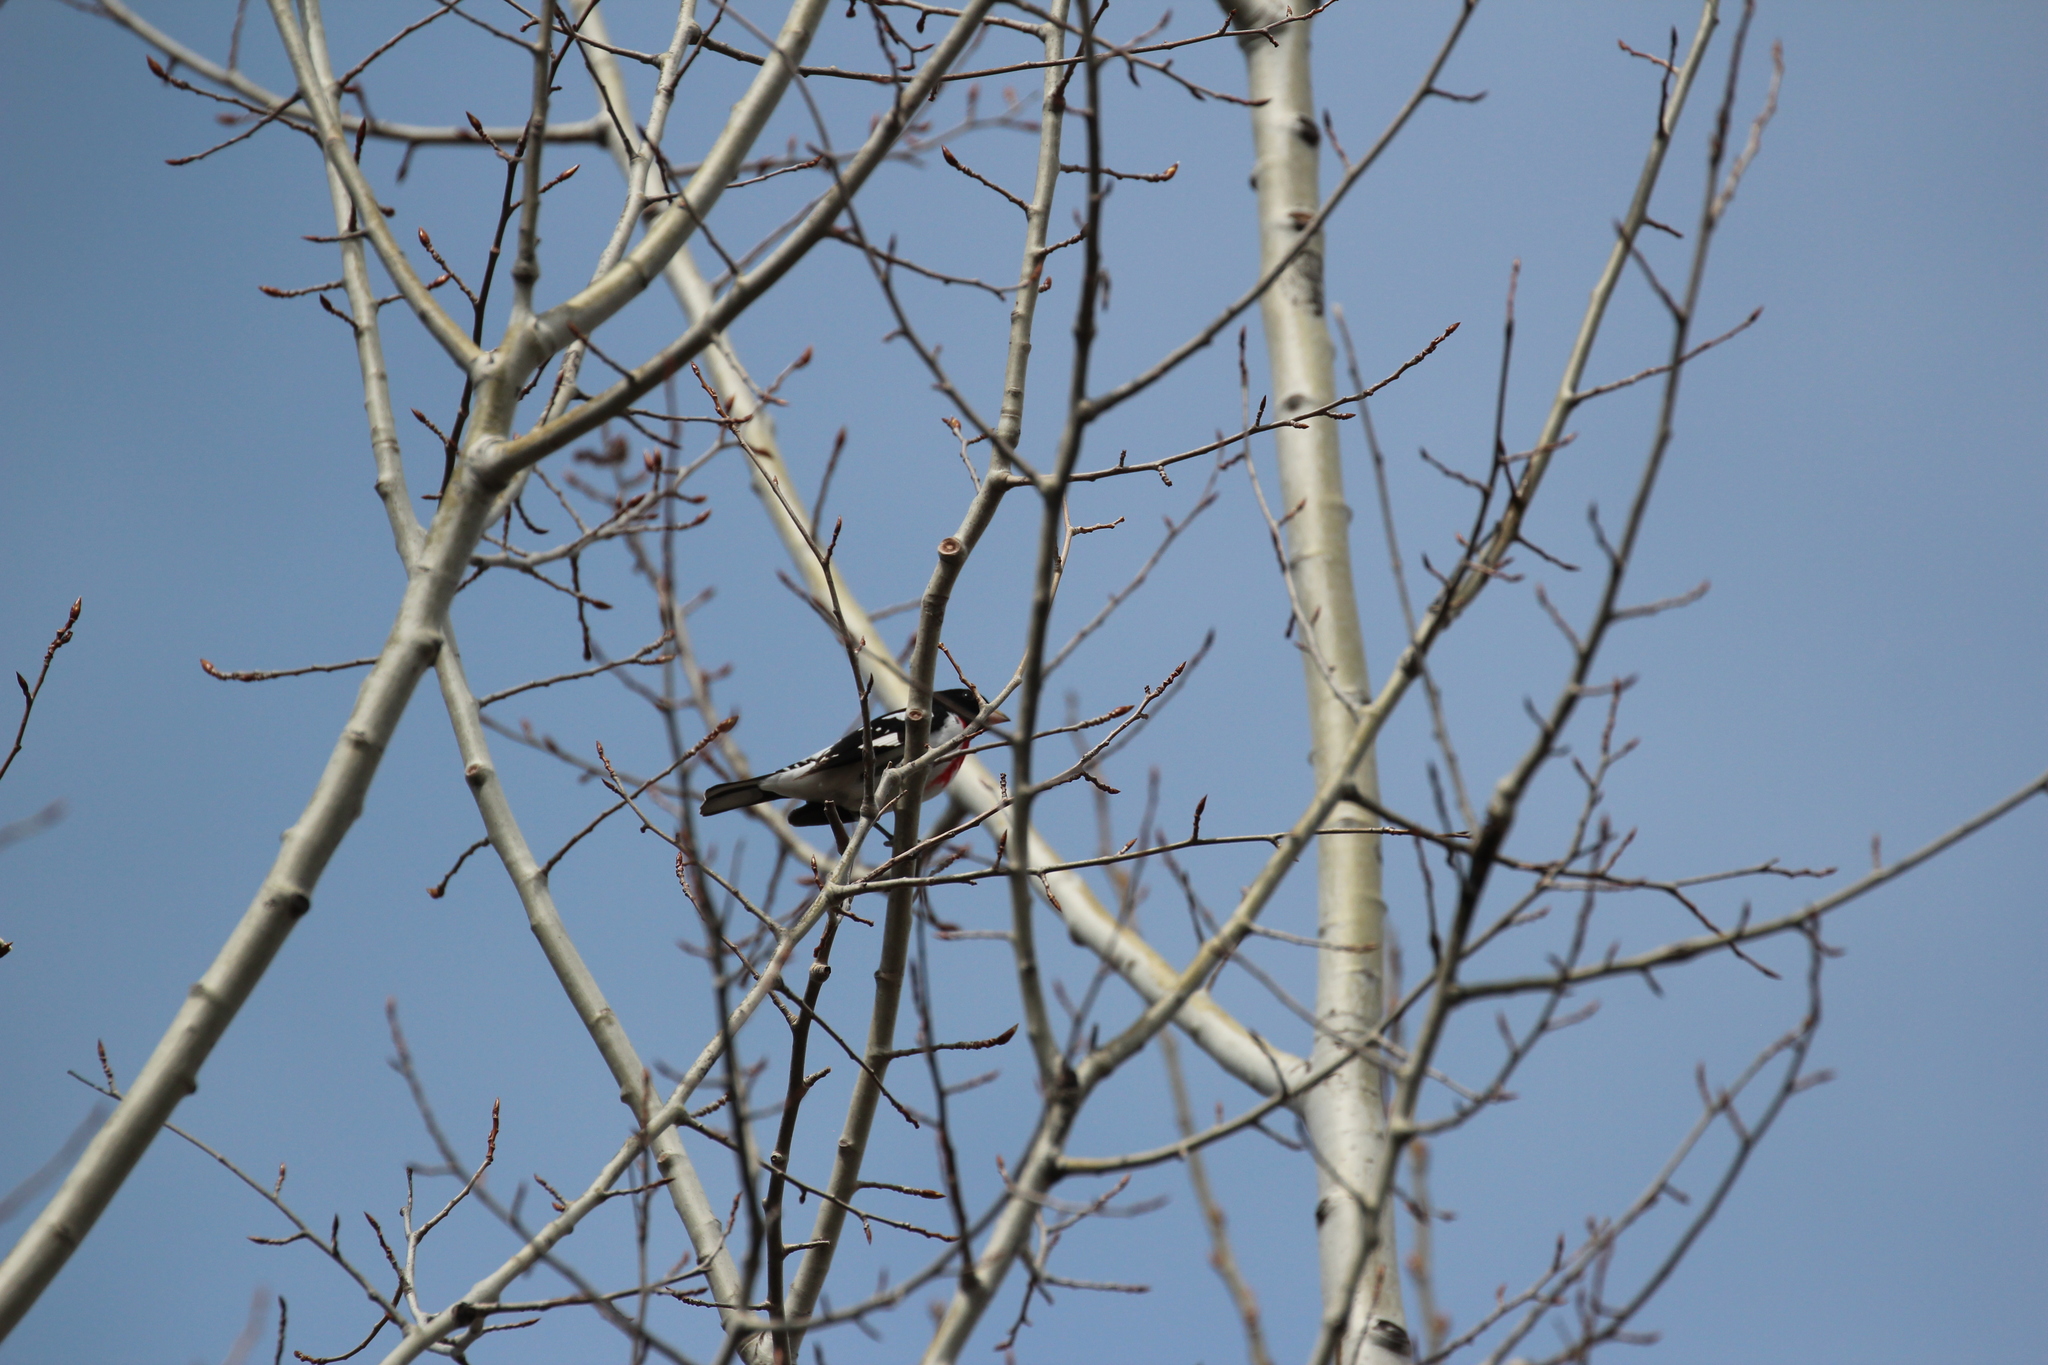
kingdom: Animalia
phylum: Chordata
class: Aves
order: Passeriformes
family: Cardinalidae
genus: Pheucticus
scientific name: Pheucticus ludovicianus
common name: Rose-breasted grosbeak
